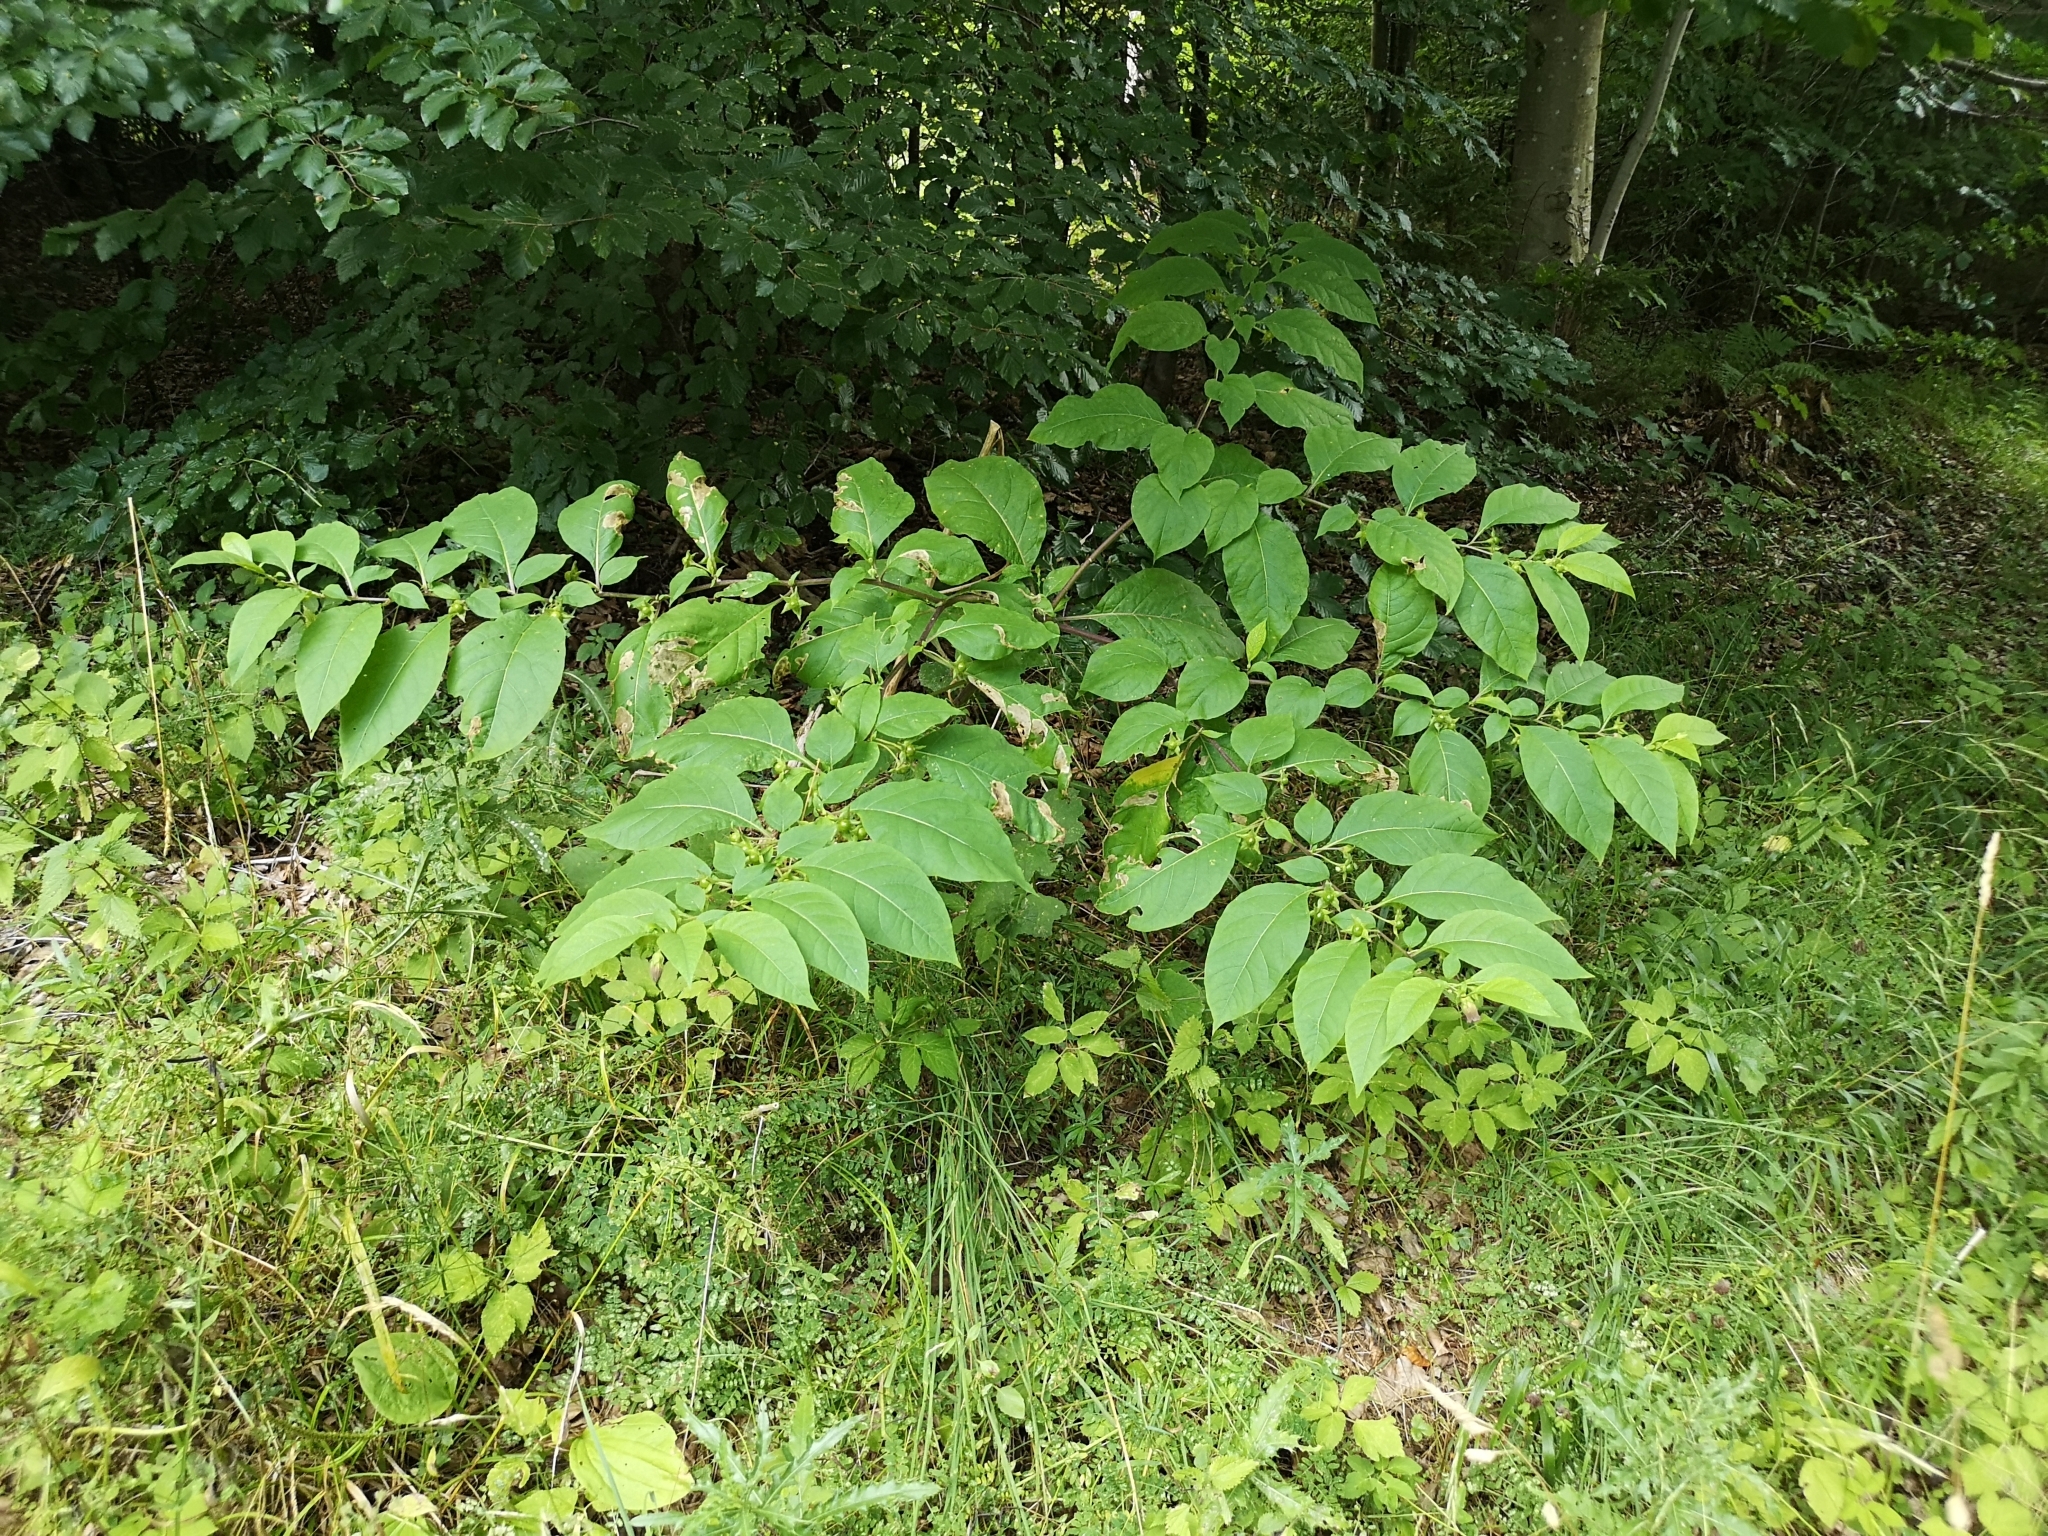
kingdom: Plantae
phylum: Tracheophyta
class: Magnoliopsida
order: Solanales
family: Solanaceae
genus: Atropa
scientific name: Atropa belladonna
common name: Deadly nightshade
